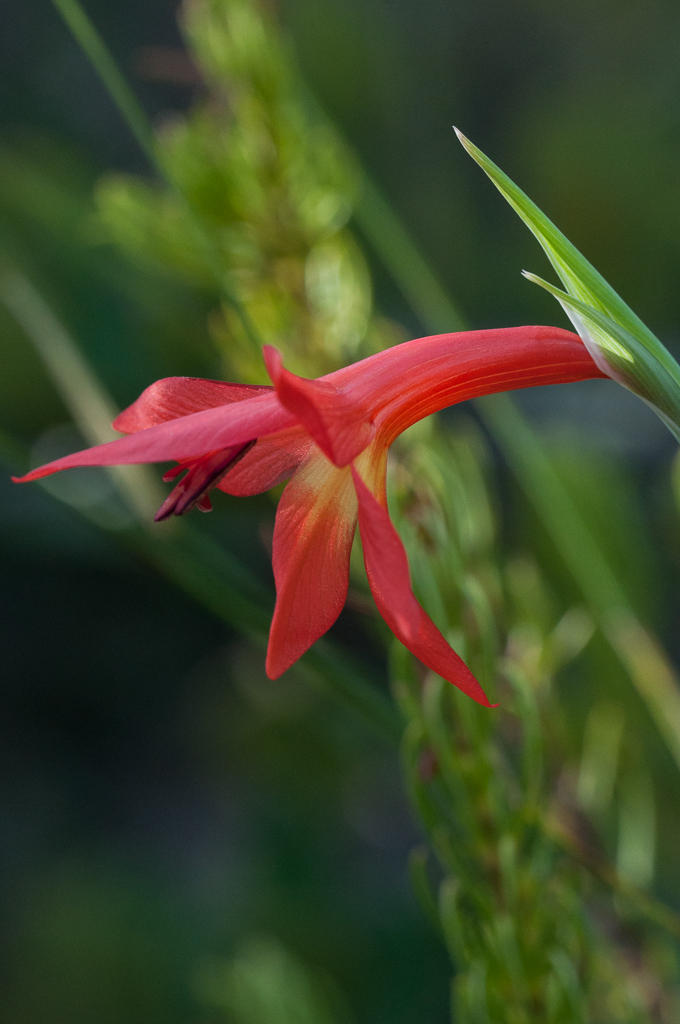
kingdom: Plantae
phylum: Tracheophyta
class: Liliopsida
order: Asparagales
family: Iridaceae
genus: Gladiolus
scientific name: Gladiolus priorii
